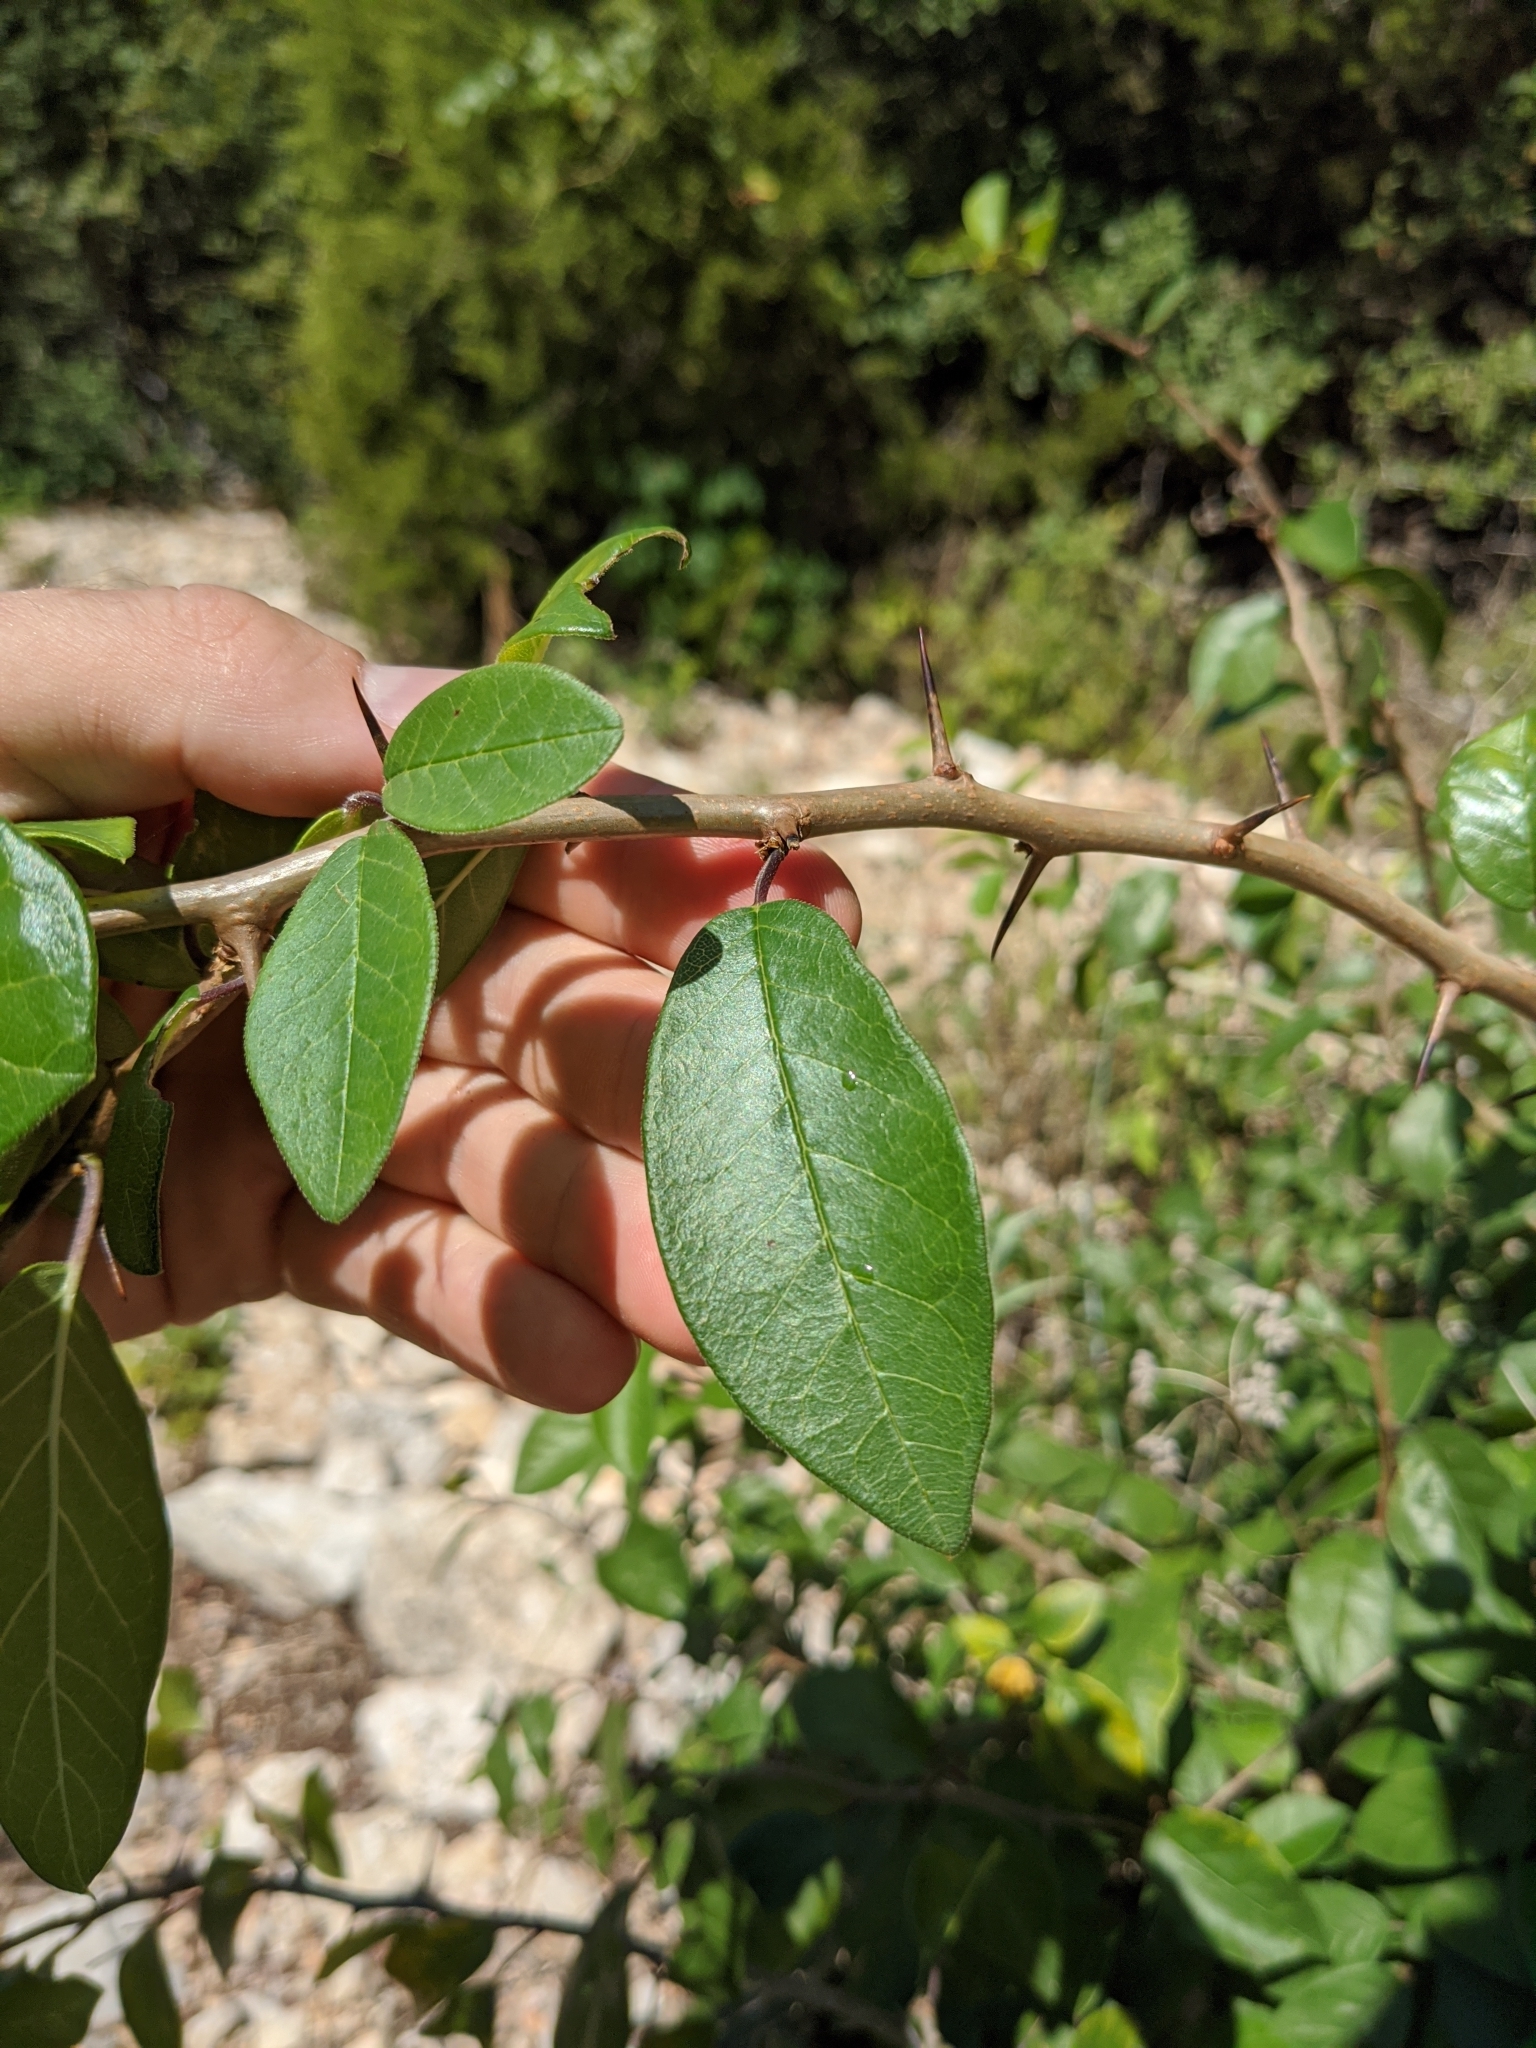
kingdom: Plantae
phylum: Tracheophyta
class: Magnoliopsida
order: Rosales
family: Moraceae
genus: Maclura
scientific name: Maclura pomifera
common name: Osage-orange
